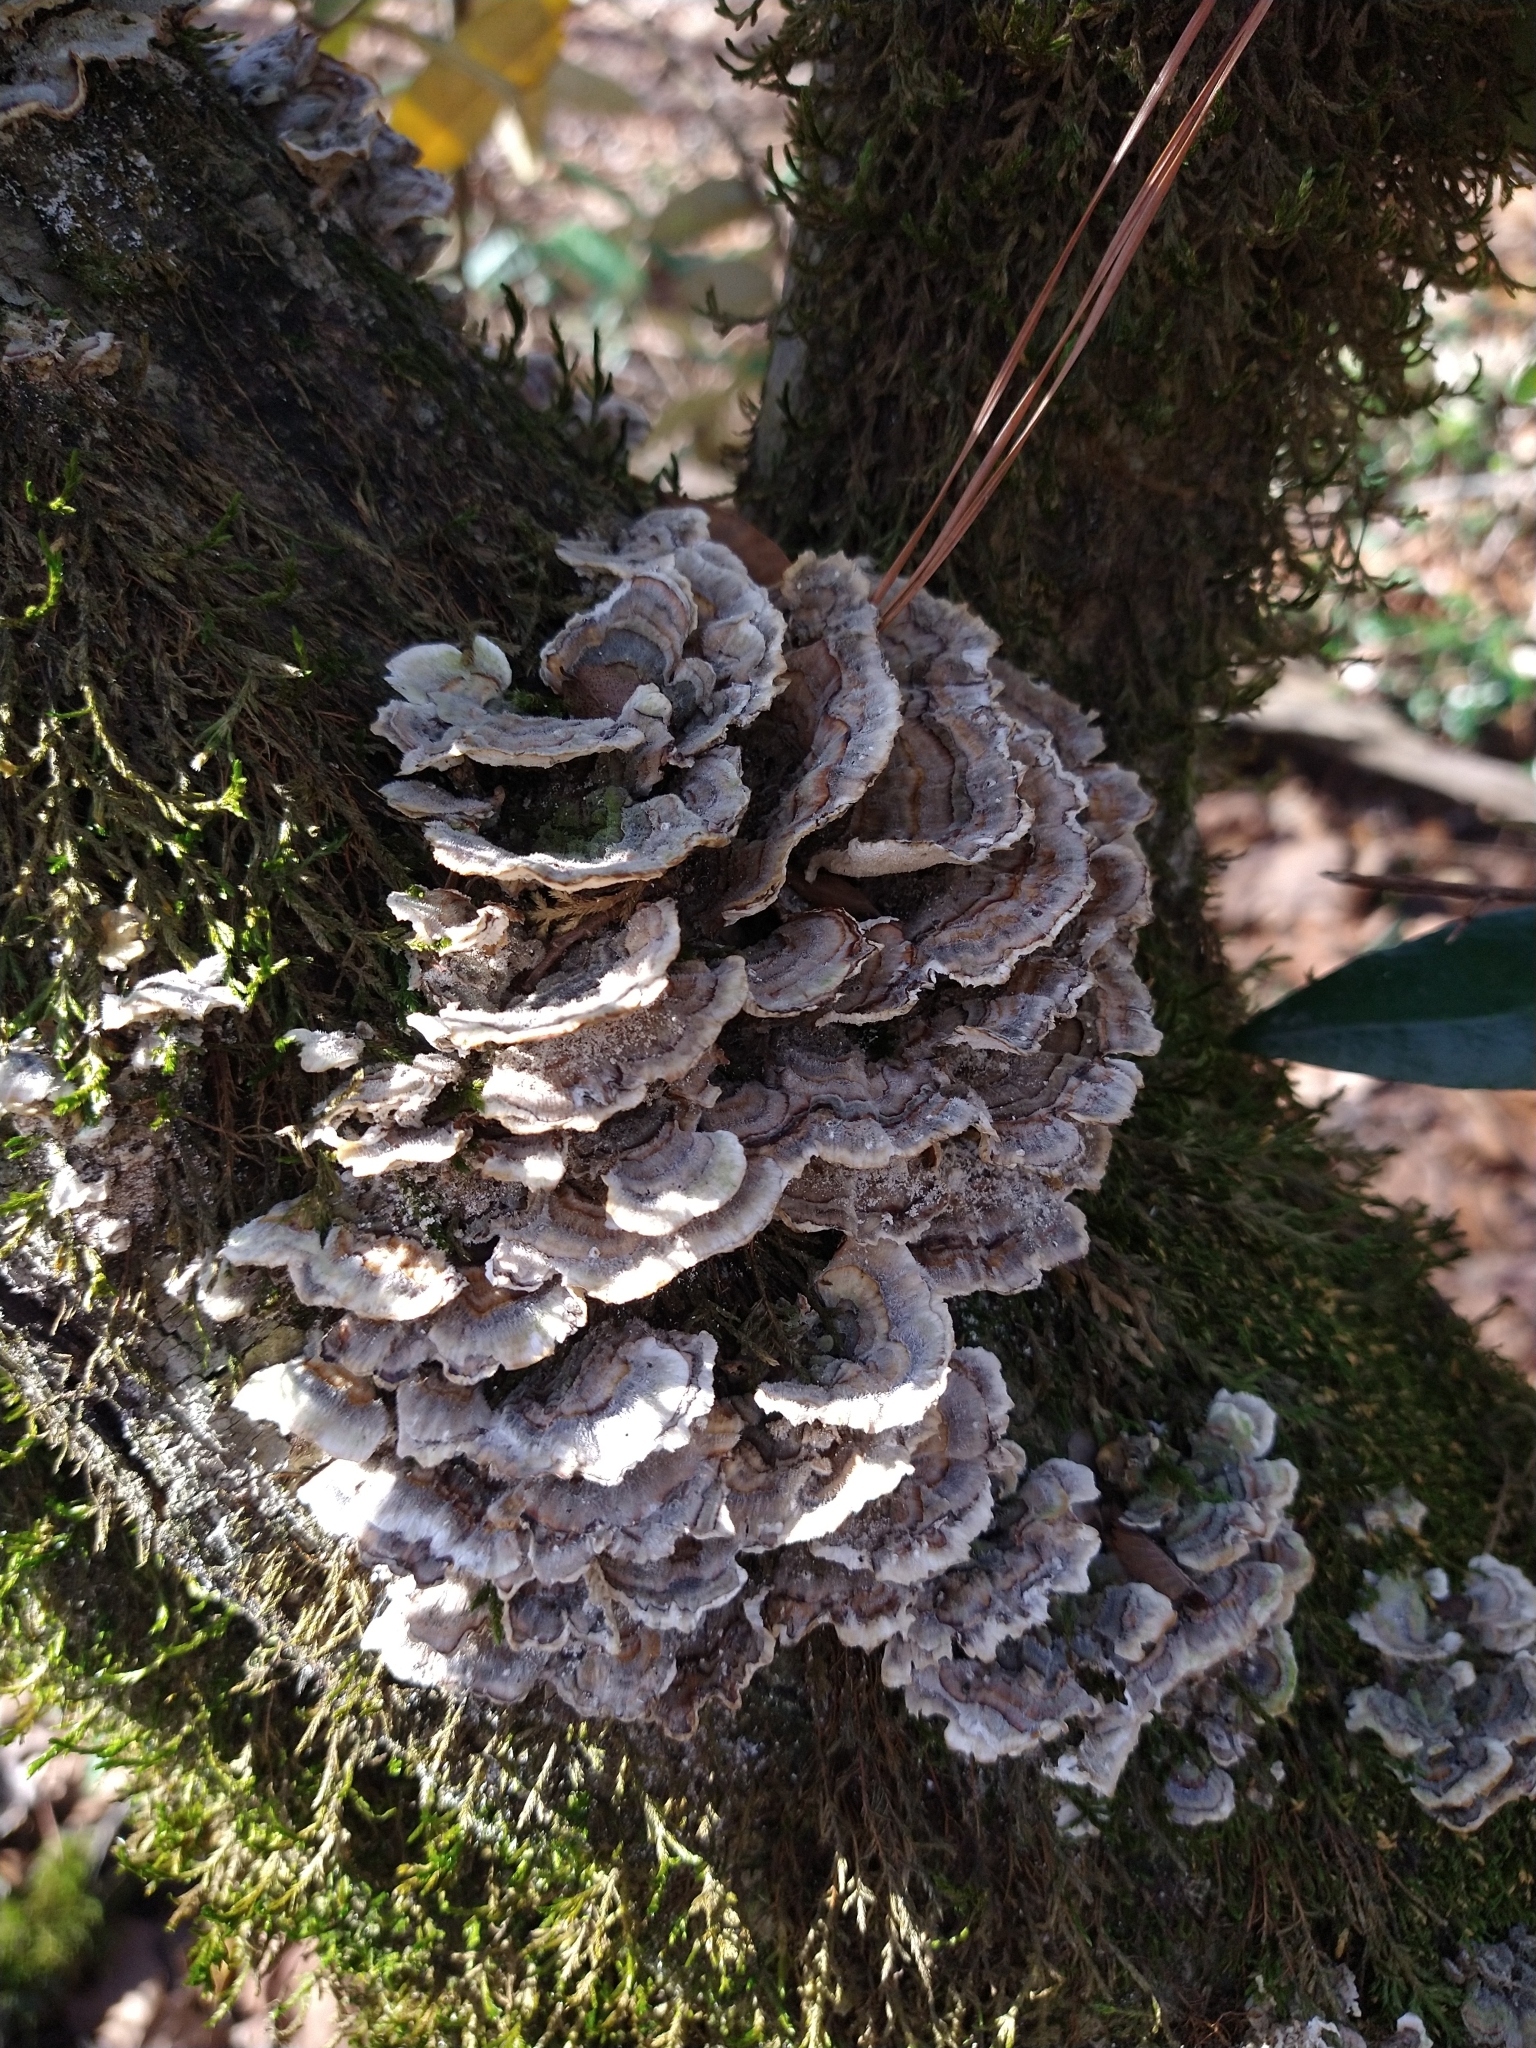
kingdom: Fungi
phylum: Basidiomycota
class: Agaricomycetes
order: Polyporales
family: Polyporaceae
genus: Trametes
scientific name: Trametes versicolor
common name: Turkeytail
